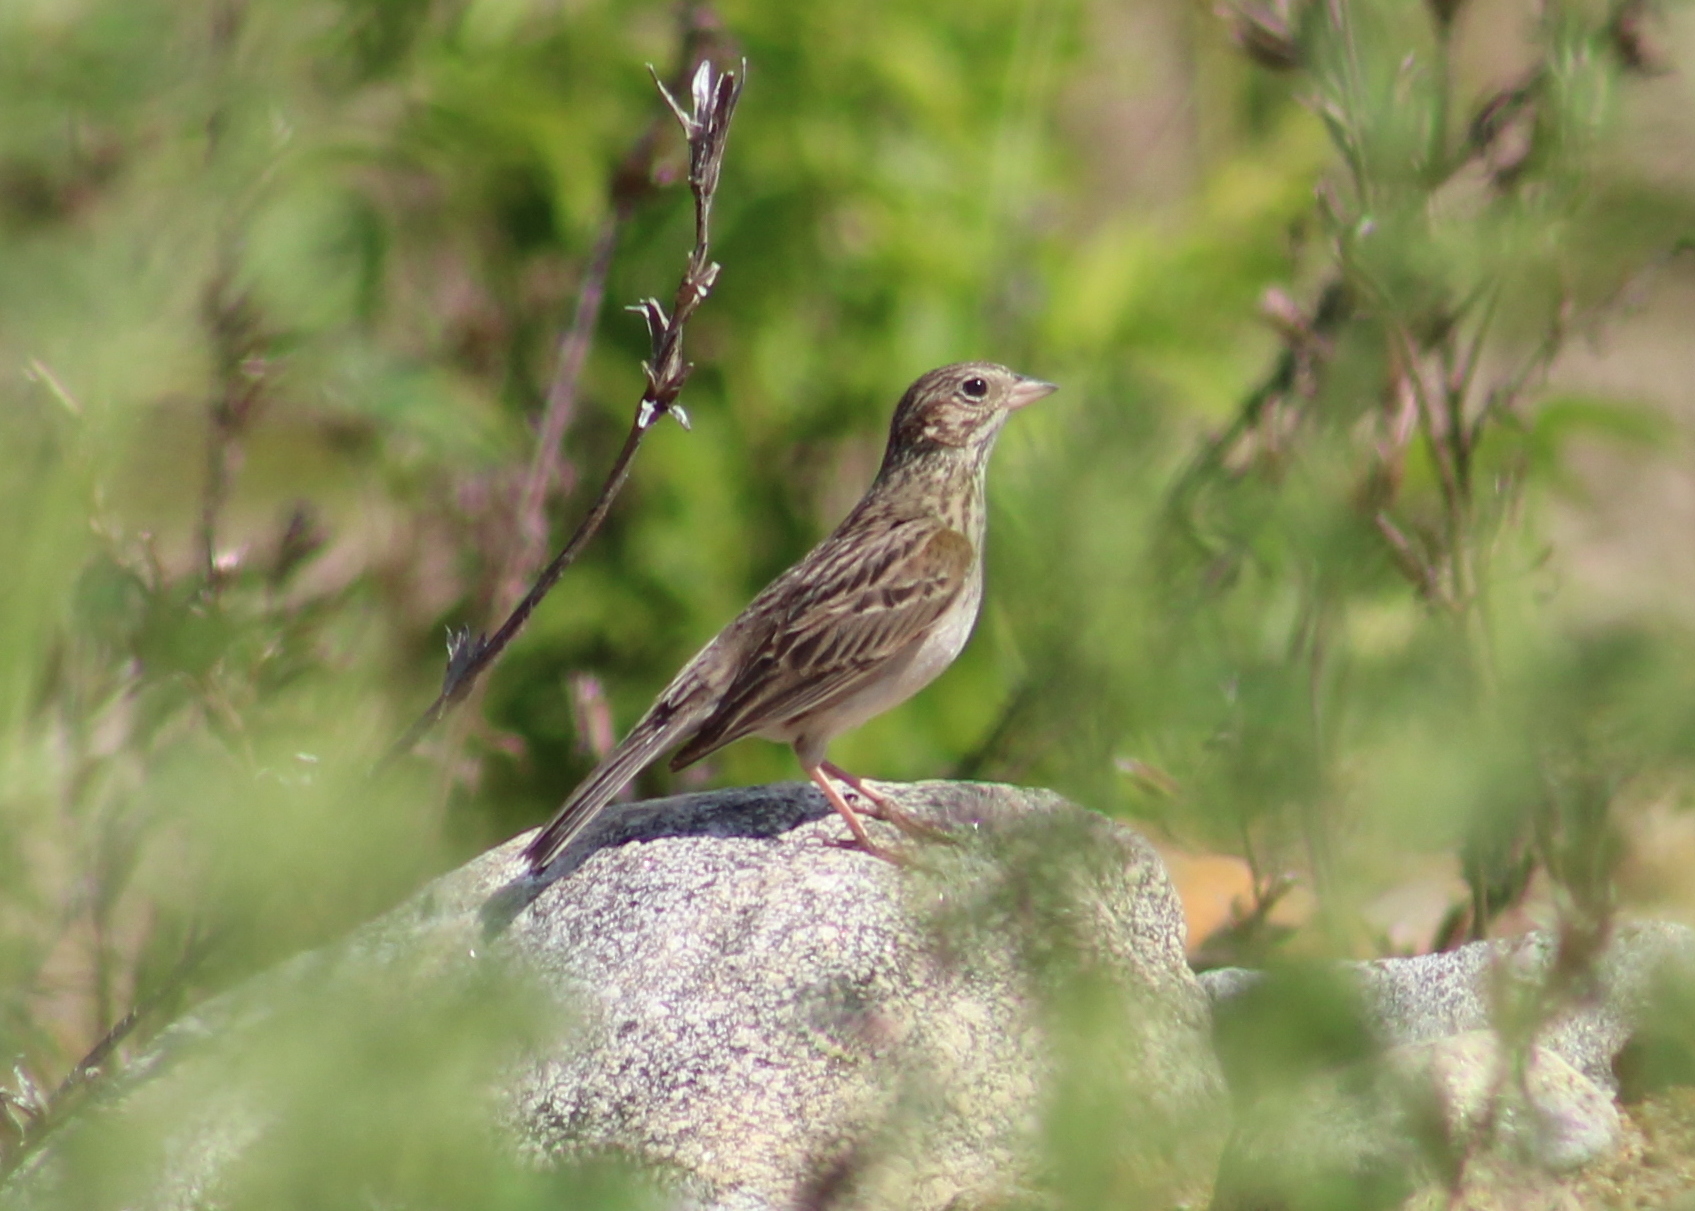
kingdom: Animalia
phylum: Chordata
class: Aves
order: Passeriformes
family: Passerellidae
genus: Pooecetes
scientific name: Pooecetes gramineus
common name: Vesper sparrow
